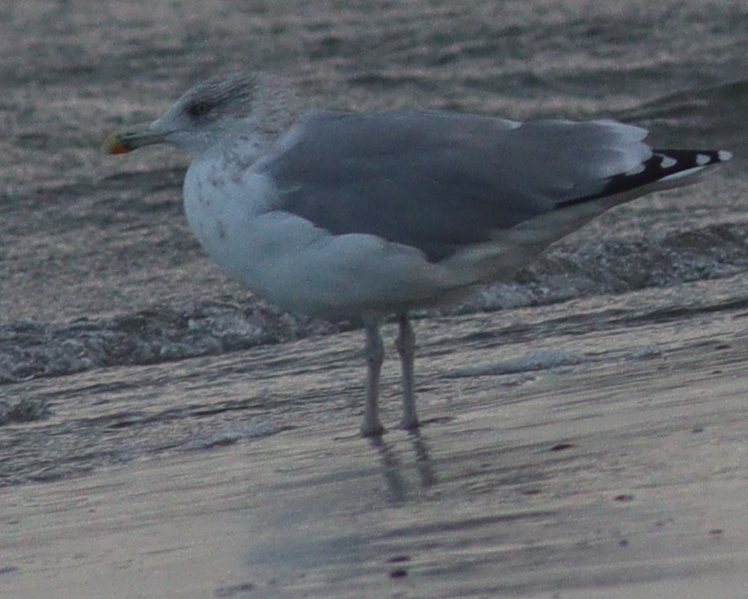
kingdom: Animalia
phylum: Chordata
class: Aves
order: Charadriiformes
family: Laridae
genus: Larus
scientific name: Larus argentatus
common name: Herring gull
